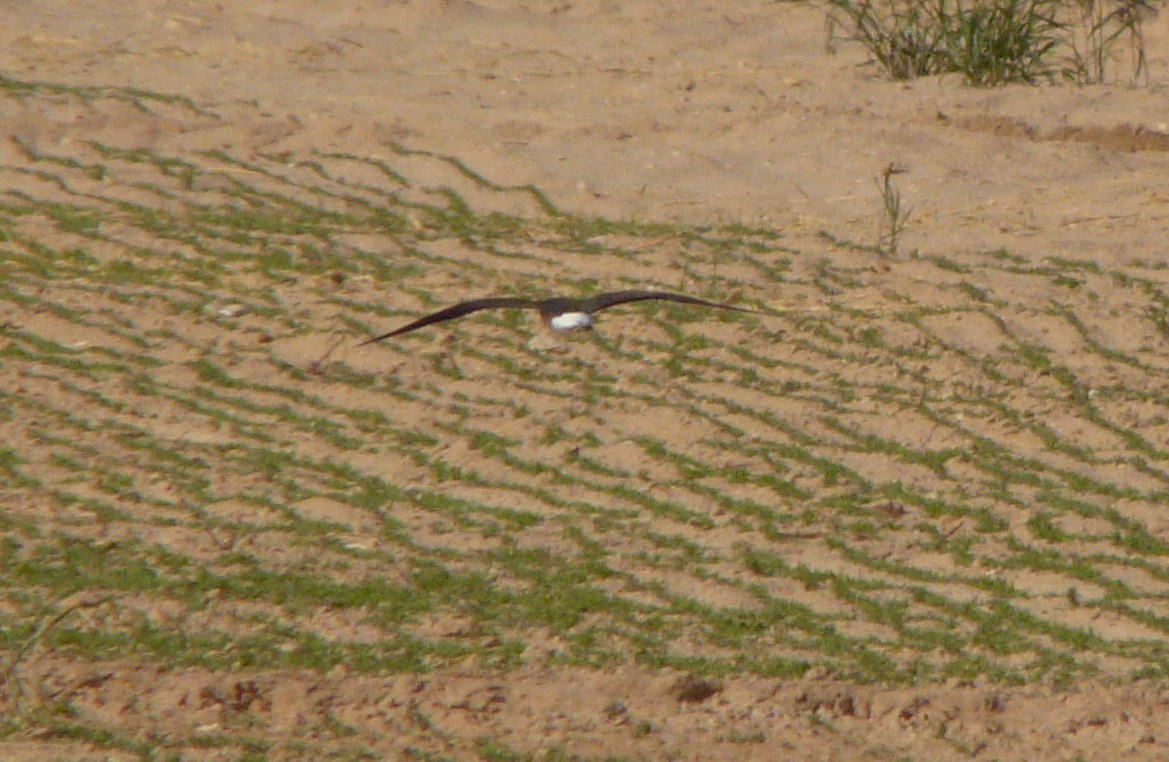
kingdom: Animalia
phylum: Chordata
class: Aves
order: Charadriiformes
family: Glareolidae
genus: Glareola
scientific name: Glareola nordmanni
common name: Black-winged pratincole
